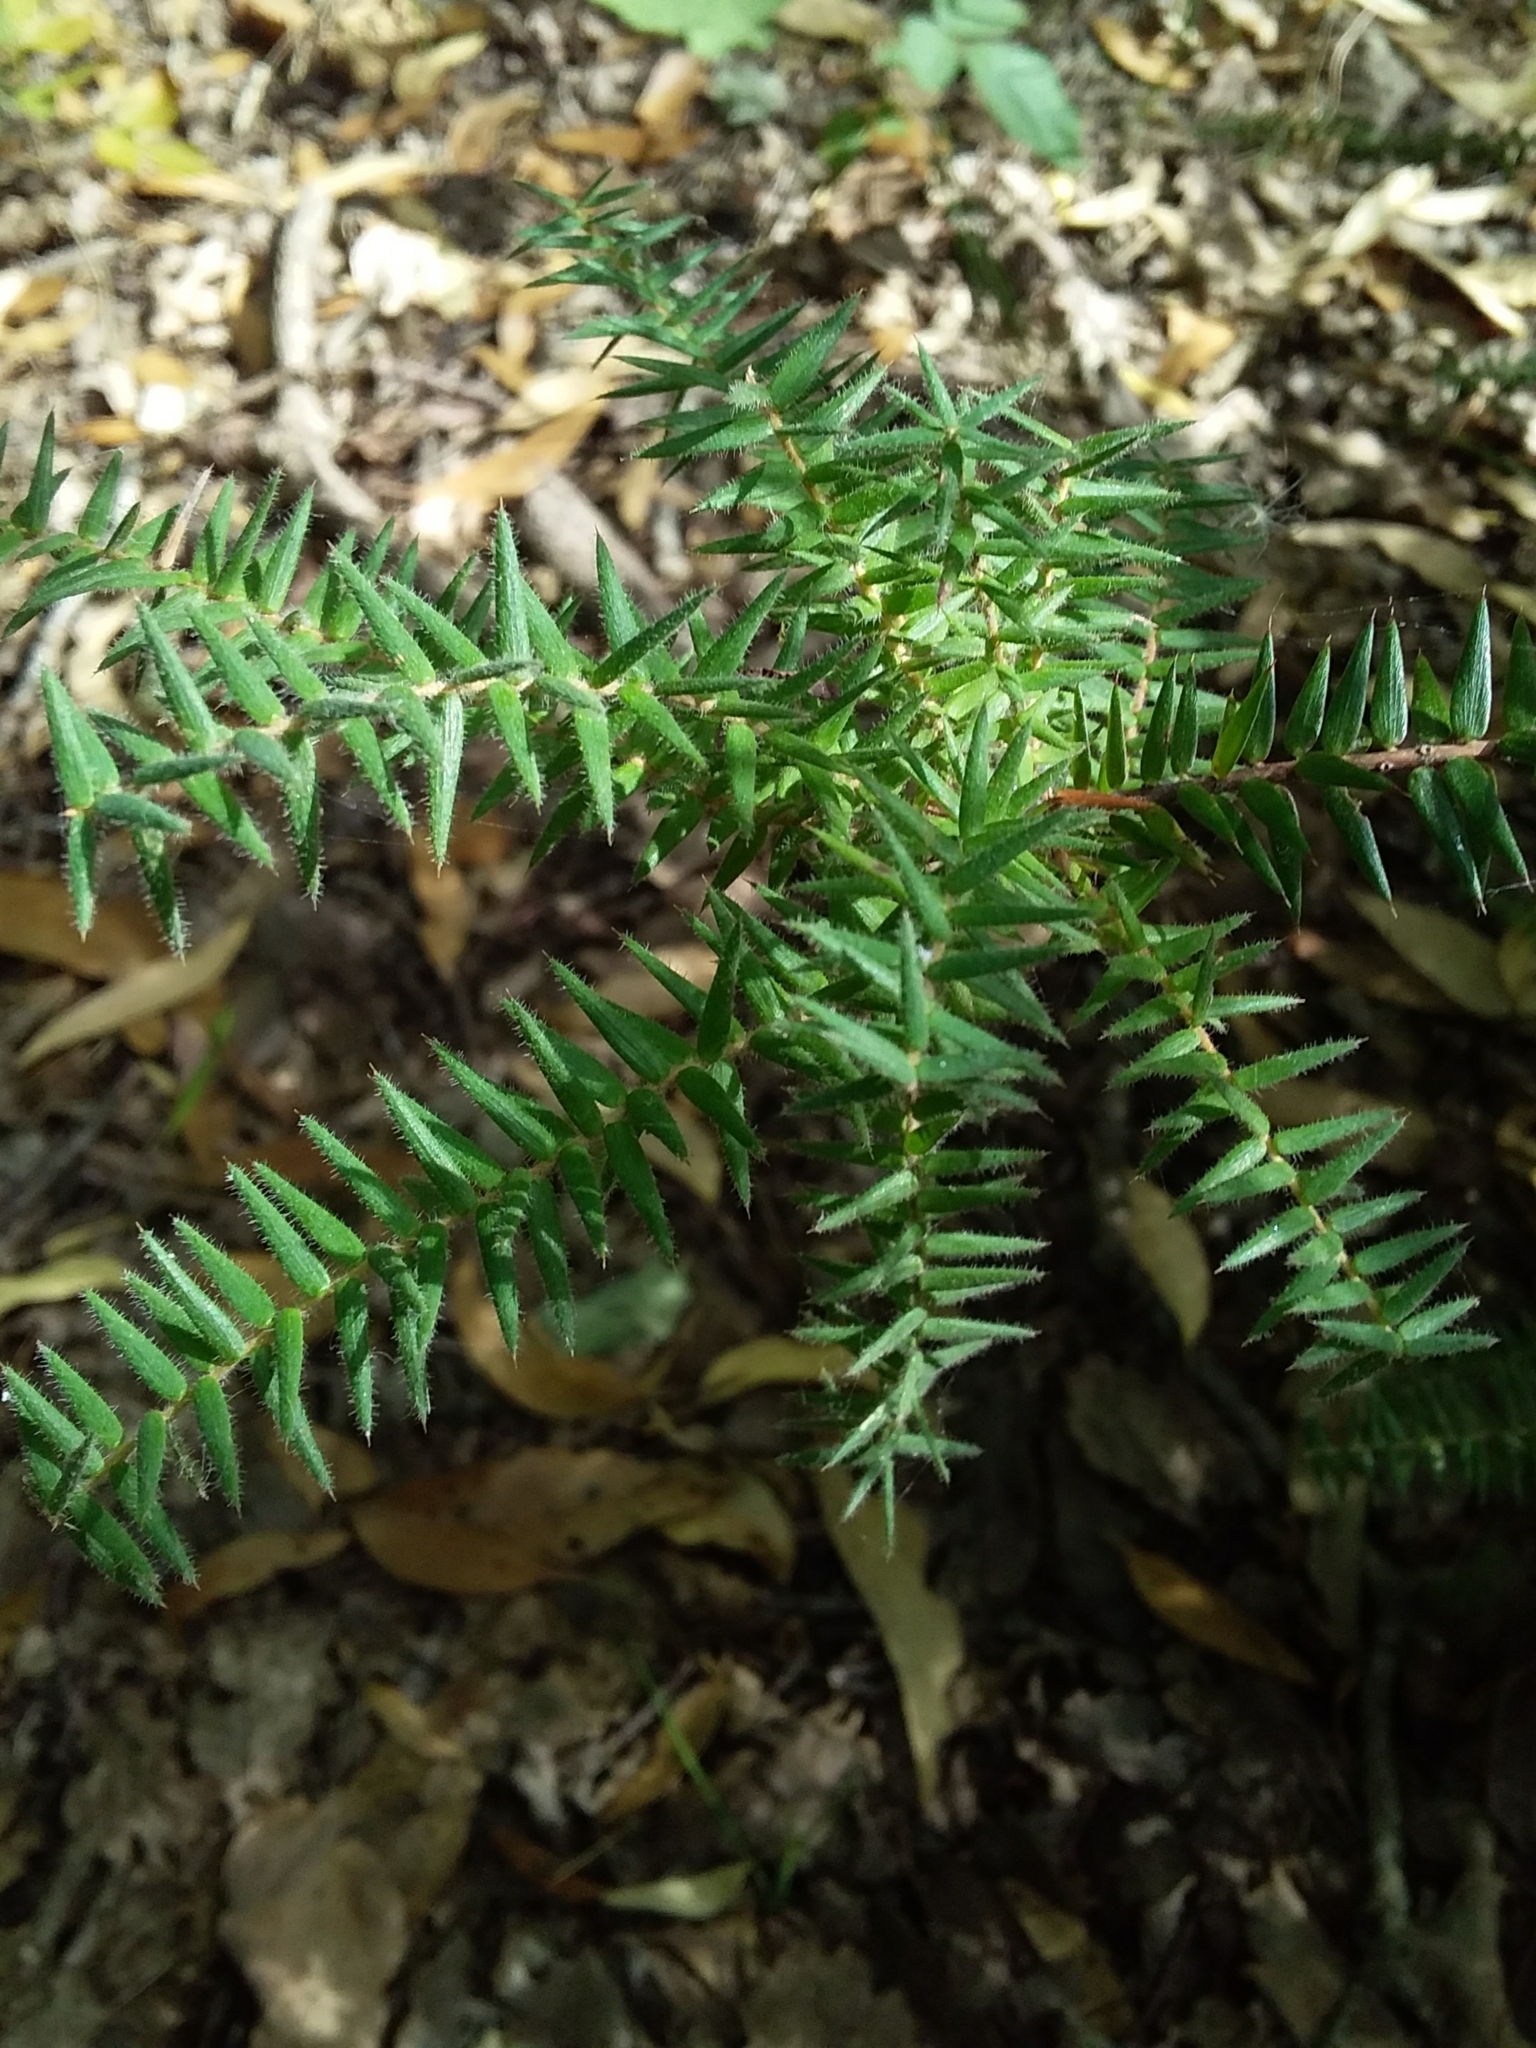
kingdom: Plantae
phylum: Tracheophyta
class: Magnoliopsida
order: Ericales
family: Ericaceae
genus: Acrotriche
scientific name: Acrotriche fasciculiflora
